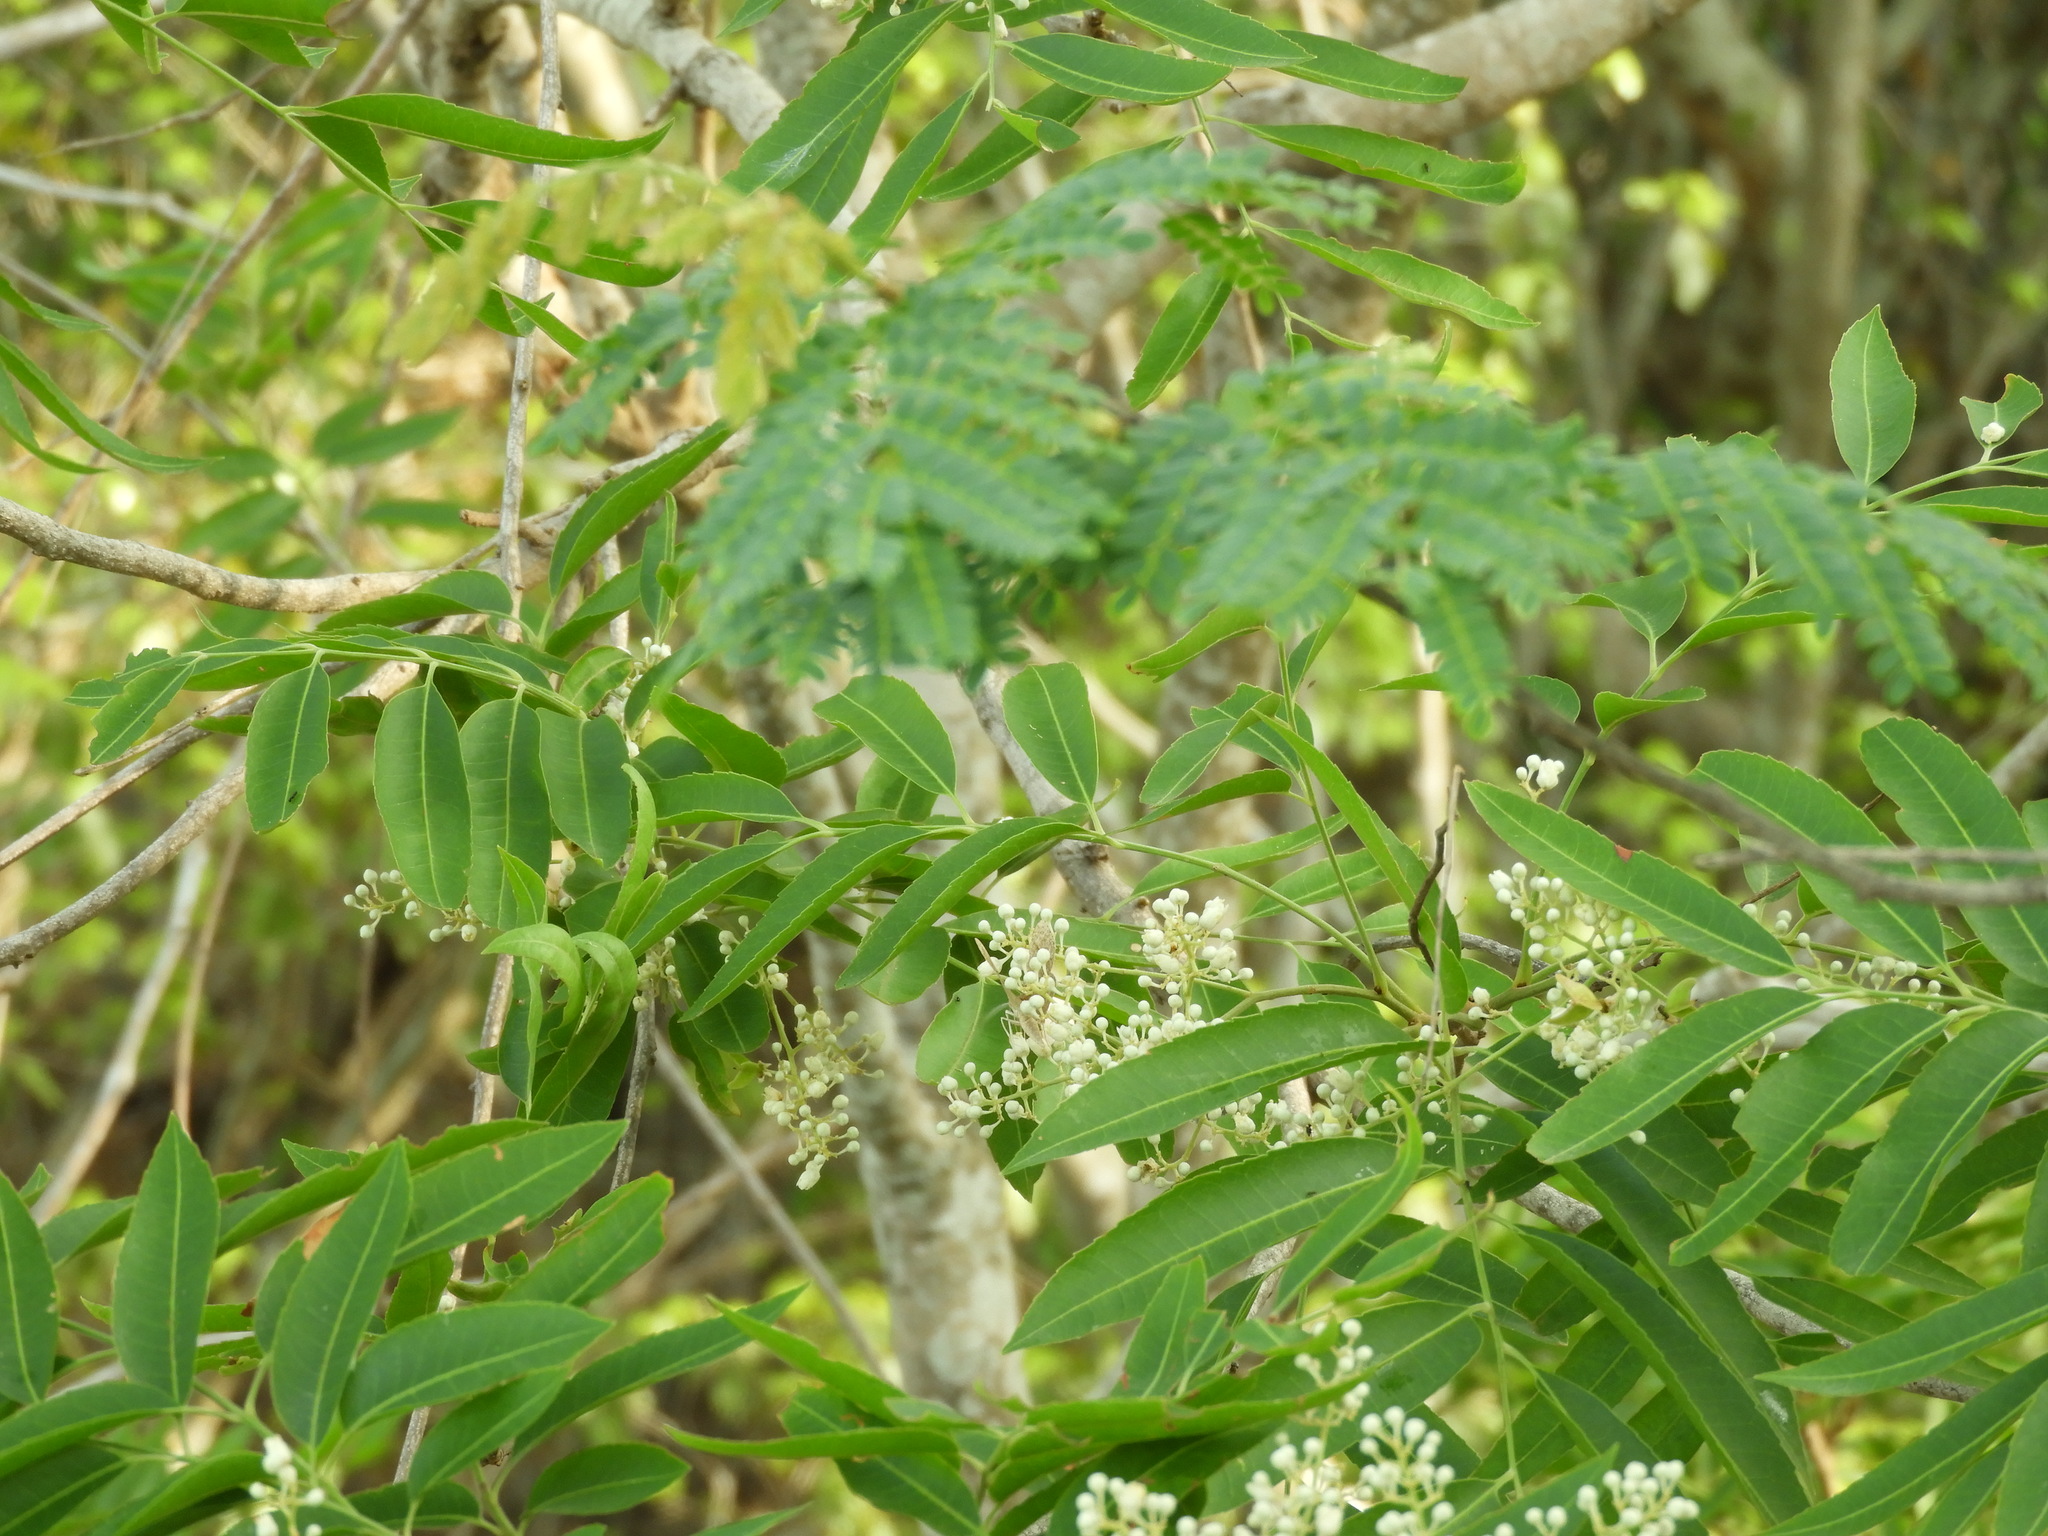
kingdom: Plantae
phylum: Tracheophyta
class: Magnoliopsida
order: Sapindales
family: Sapindaceae
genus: Thouinidium
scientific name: Thouinidium decandrum
